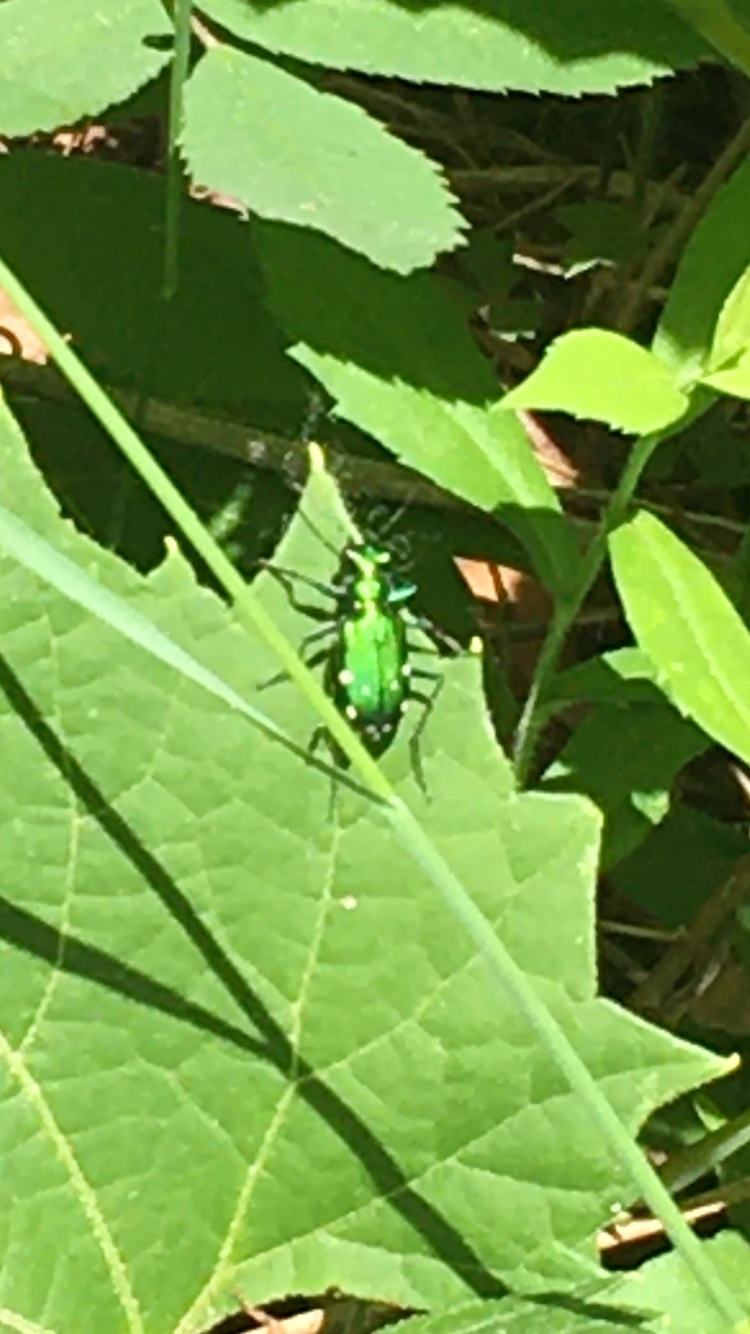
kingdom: Animalia
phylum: Arthropoda
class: Insecta
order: Coleoptera
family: Carabidae
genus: Cicindela
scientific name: Cicindela sexguttata
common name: Six-spotted tiger beetle
